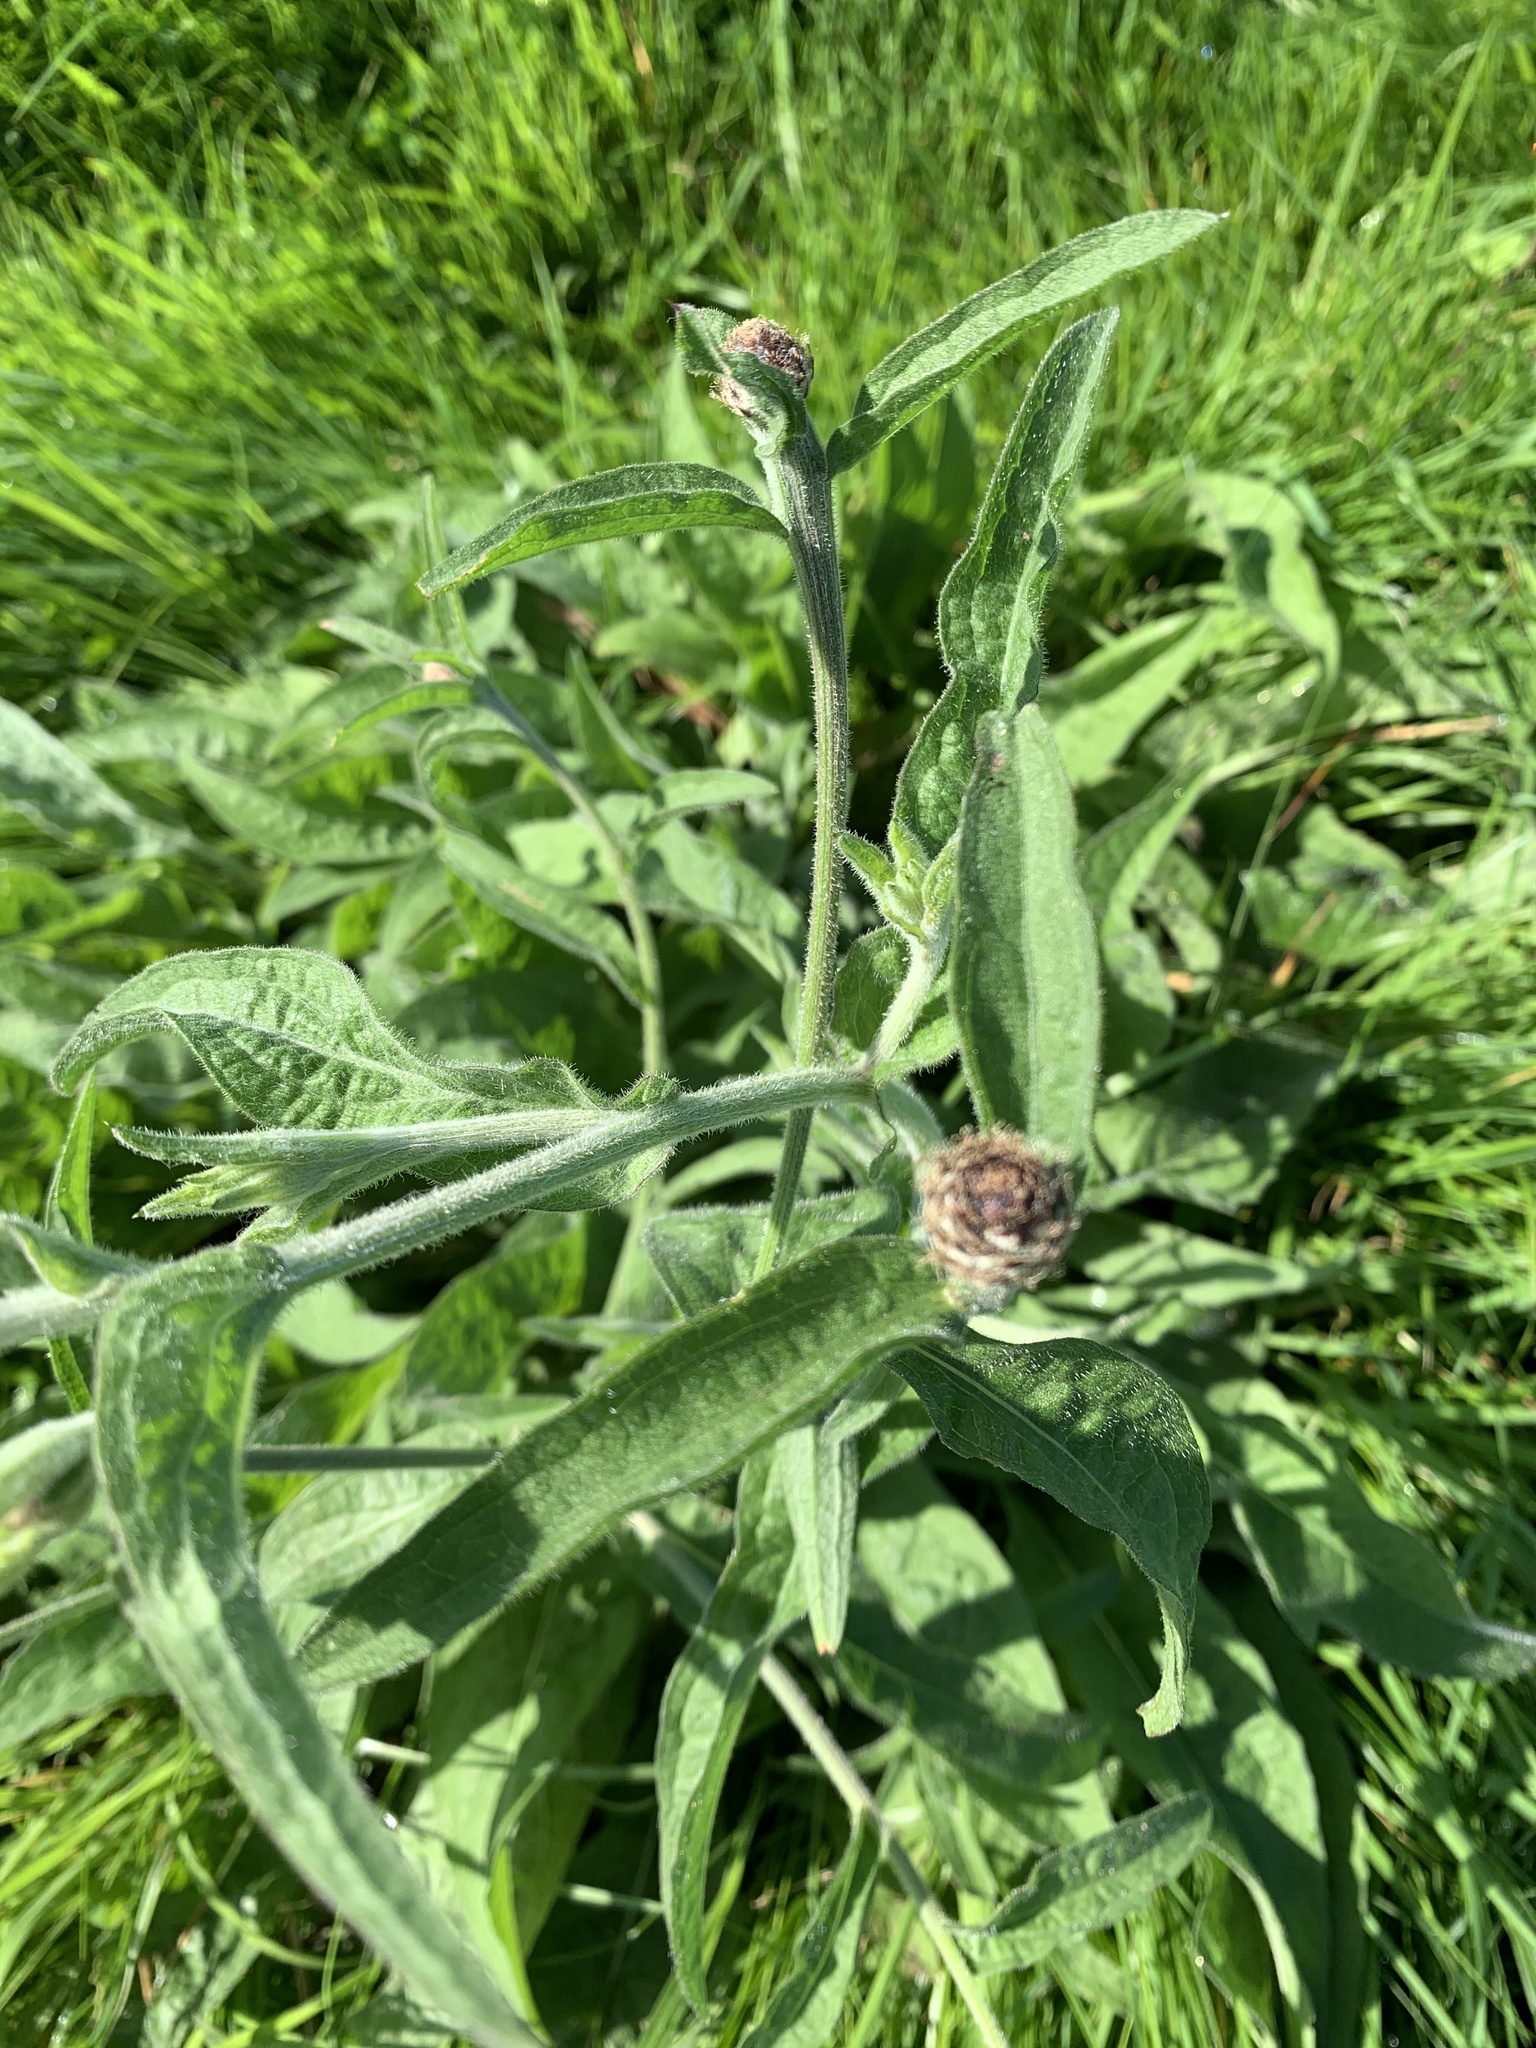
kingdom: Plantae
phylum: Tracheophyta
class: Magnoliopsida
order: Asterales
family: Asteraceae
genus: Centaurea
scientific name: Centaurea nigra
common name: Lesser knapweed
